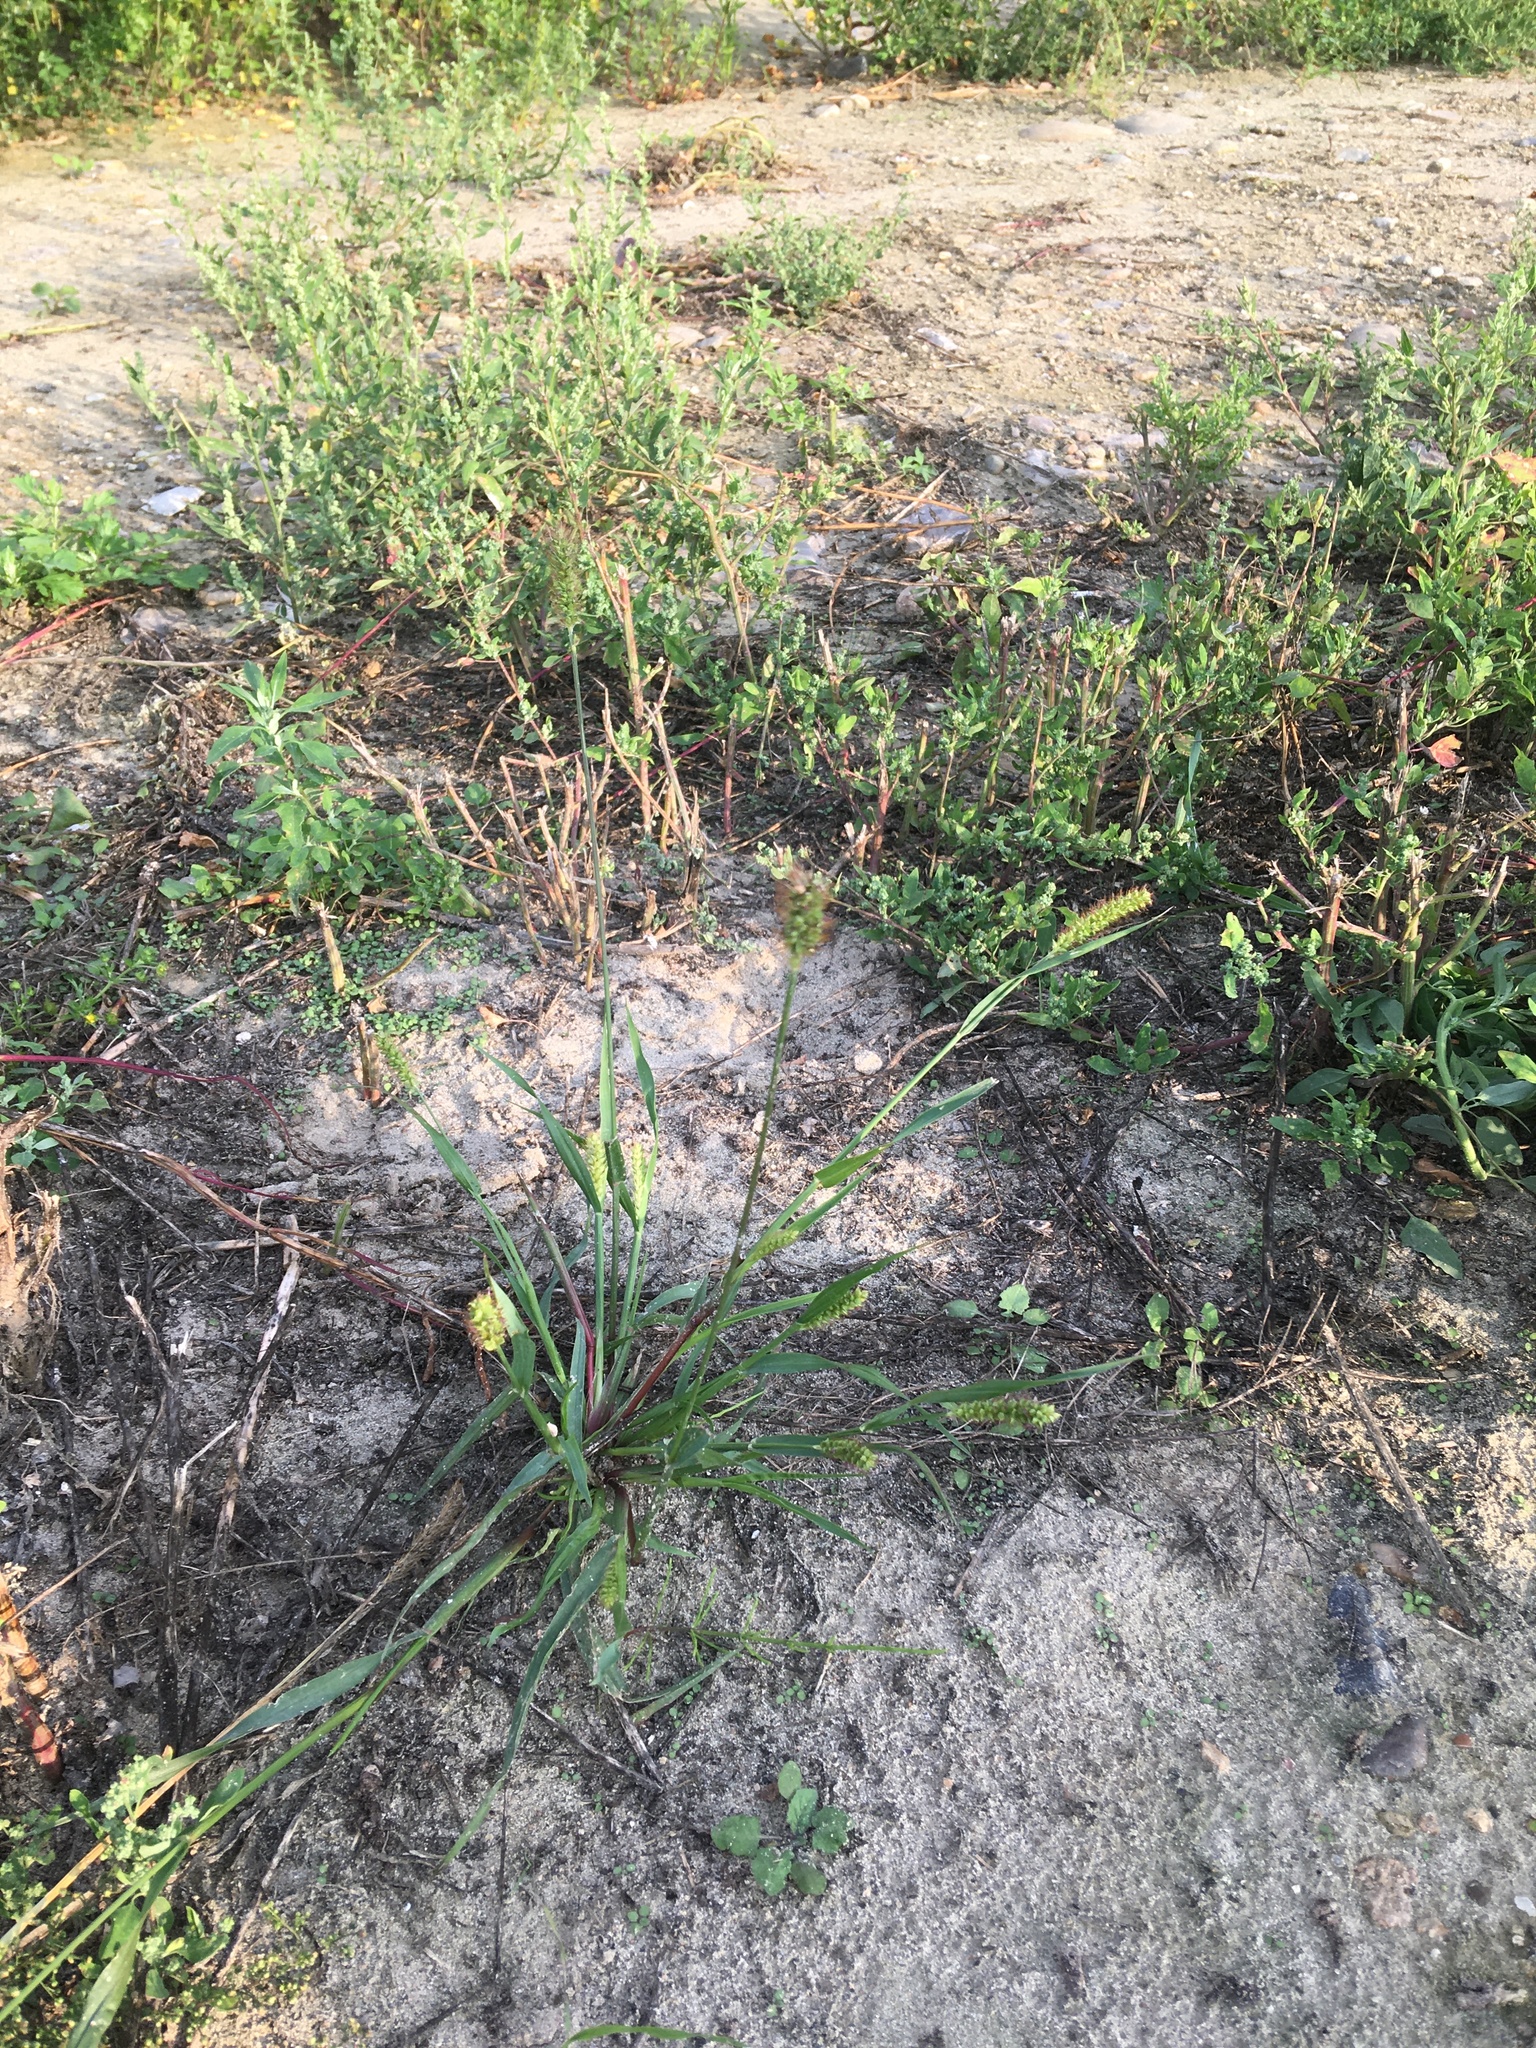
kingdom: Plantae
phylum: Tracheophyta
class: Liliopsida
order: Poales
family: Poaceae
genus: Setaria
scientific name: Setaria pumila
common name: Yellow bristle-grass
